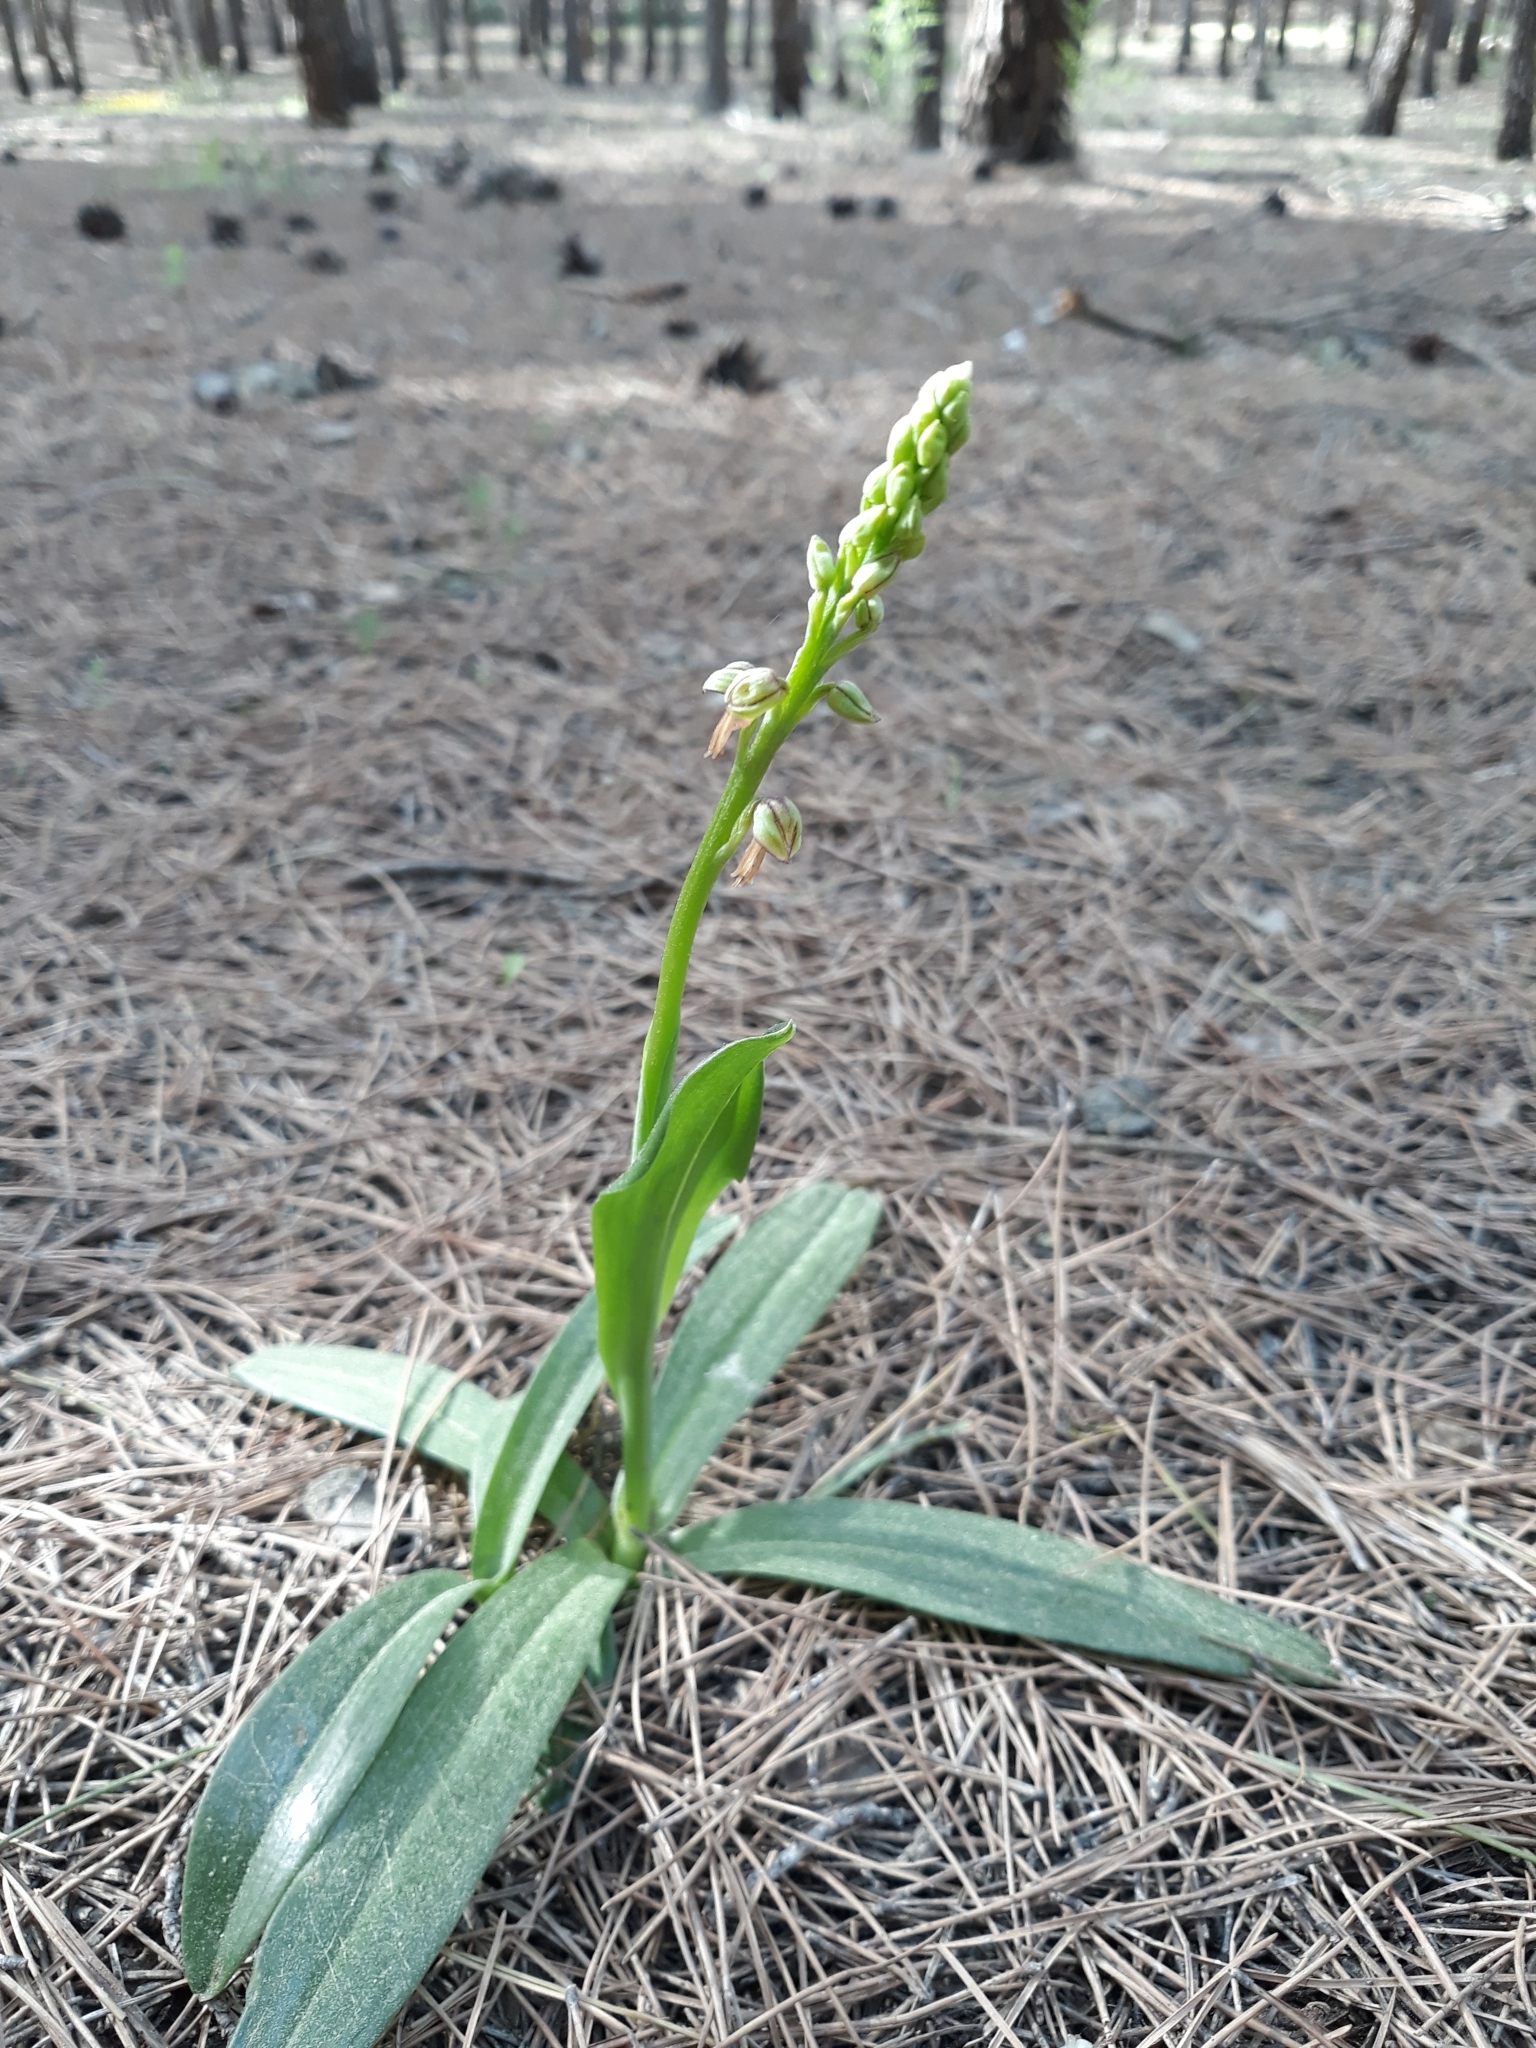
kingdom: Plantae
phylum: Tracheophyta
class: Liliopsida
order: Asparagales
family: Orchidaceae
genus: Orchis
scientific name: Orchis anthropophora
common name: Man orchid
